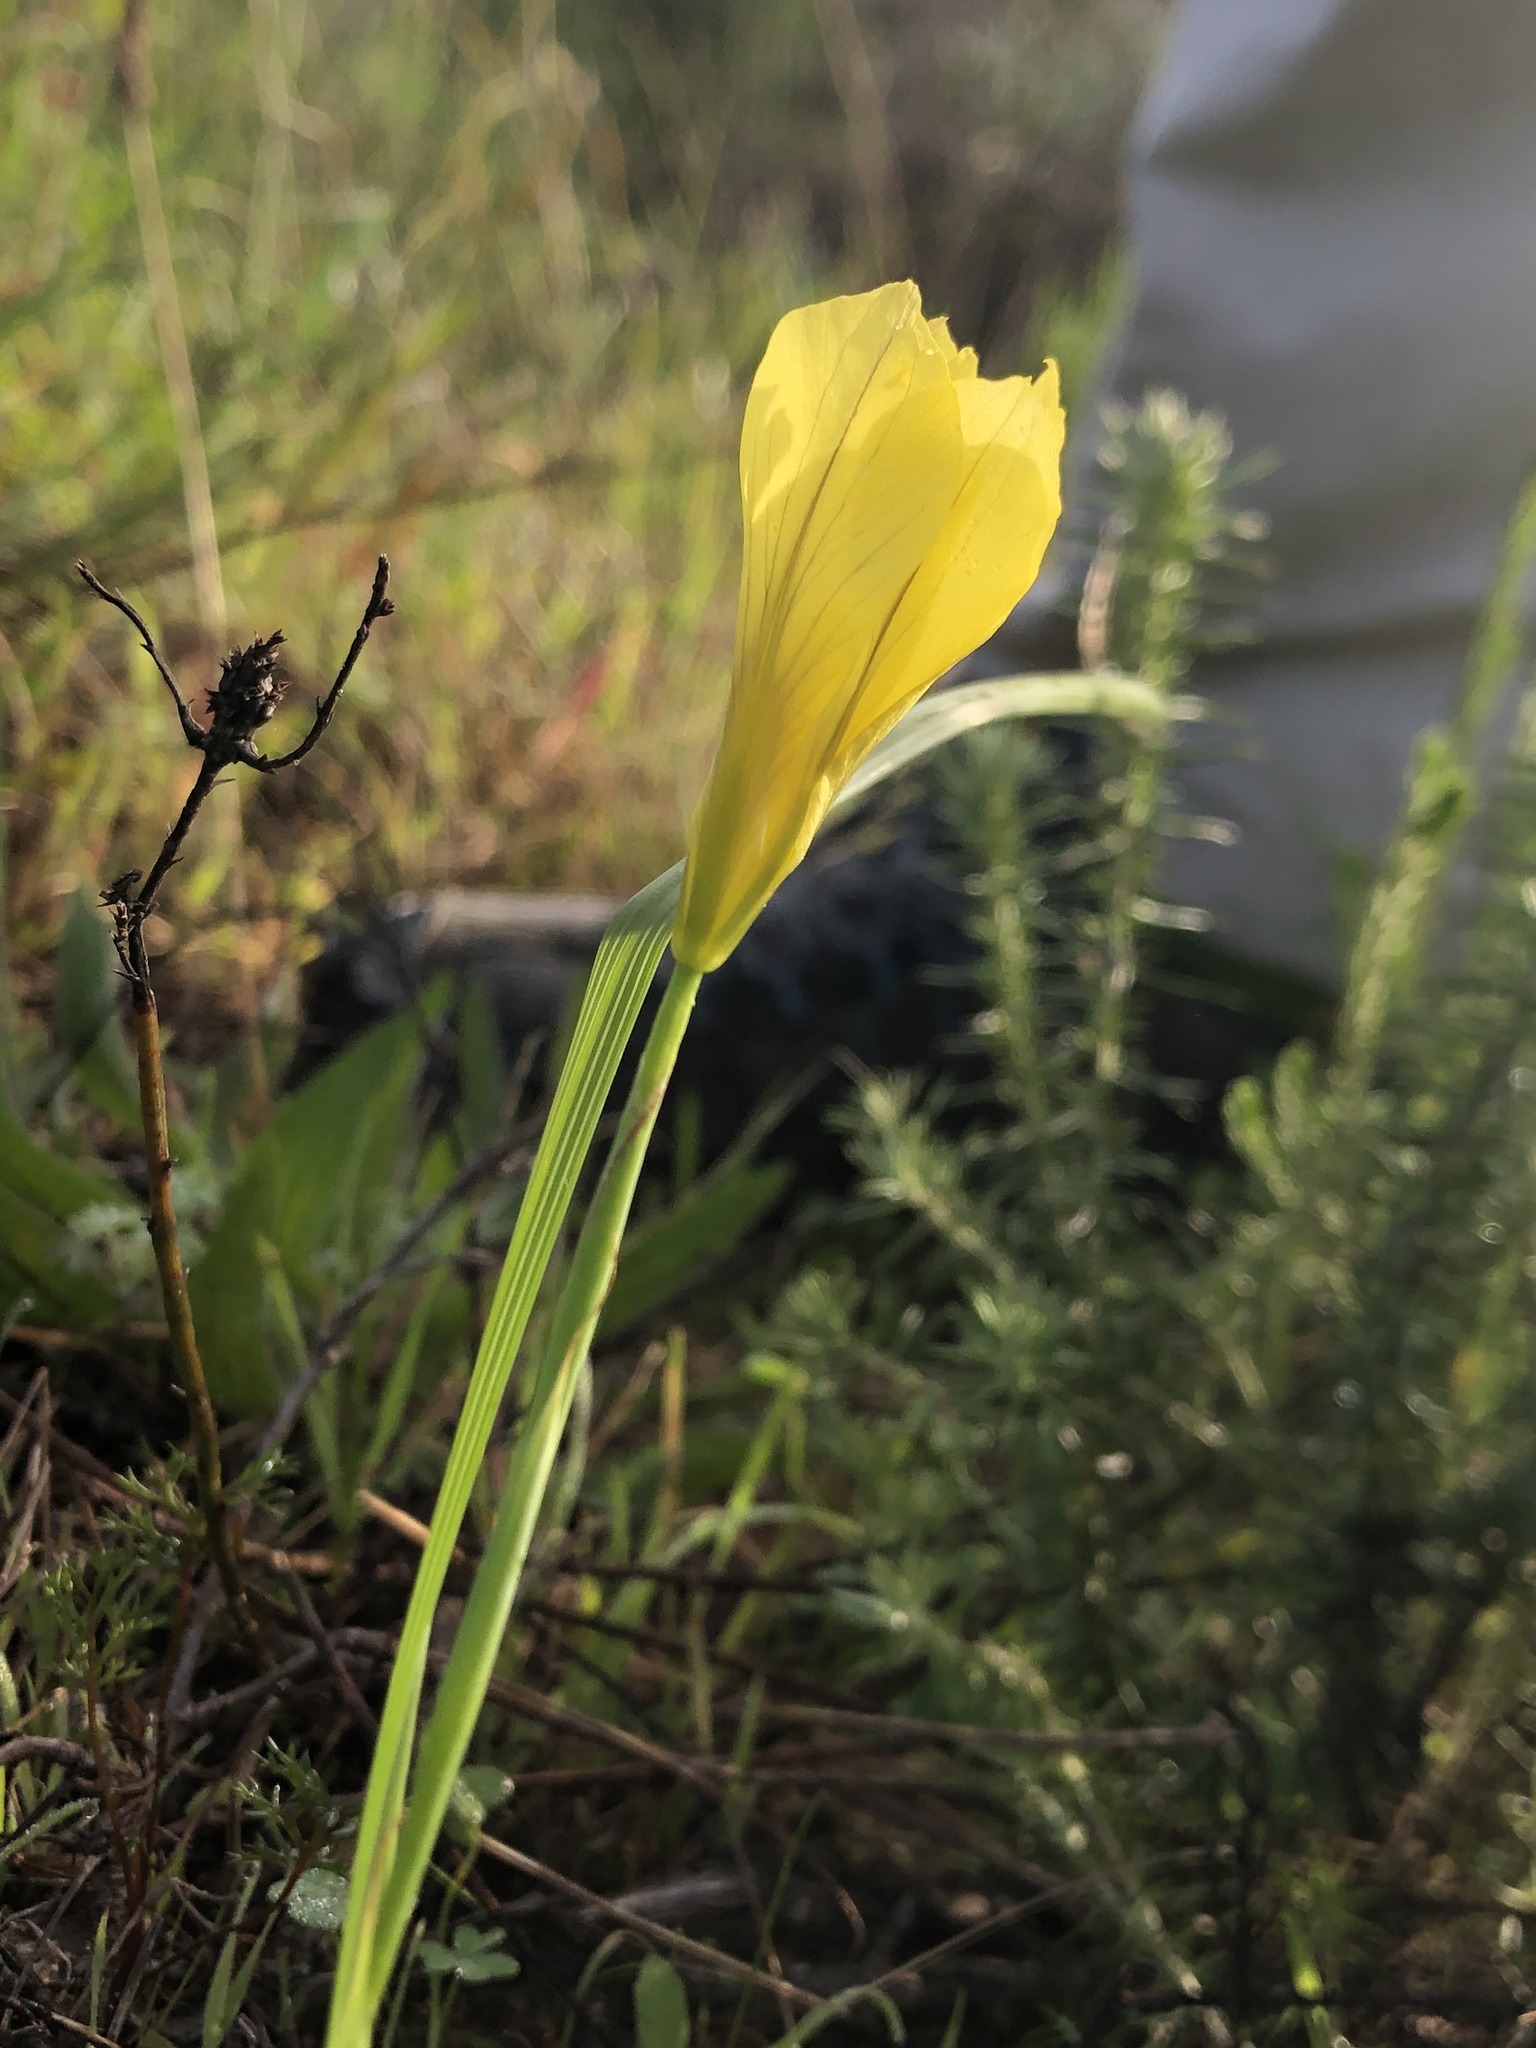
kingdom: Plantae
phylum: Tracheophyta
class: Liliopsida
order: Asparagales
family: Iridaceae
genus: Moraea
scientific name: Moraea collina
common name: Cape-tulip
